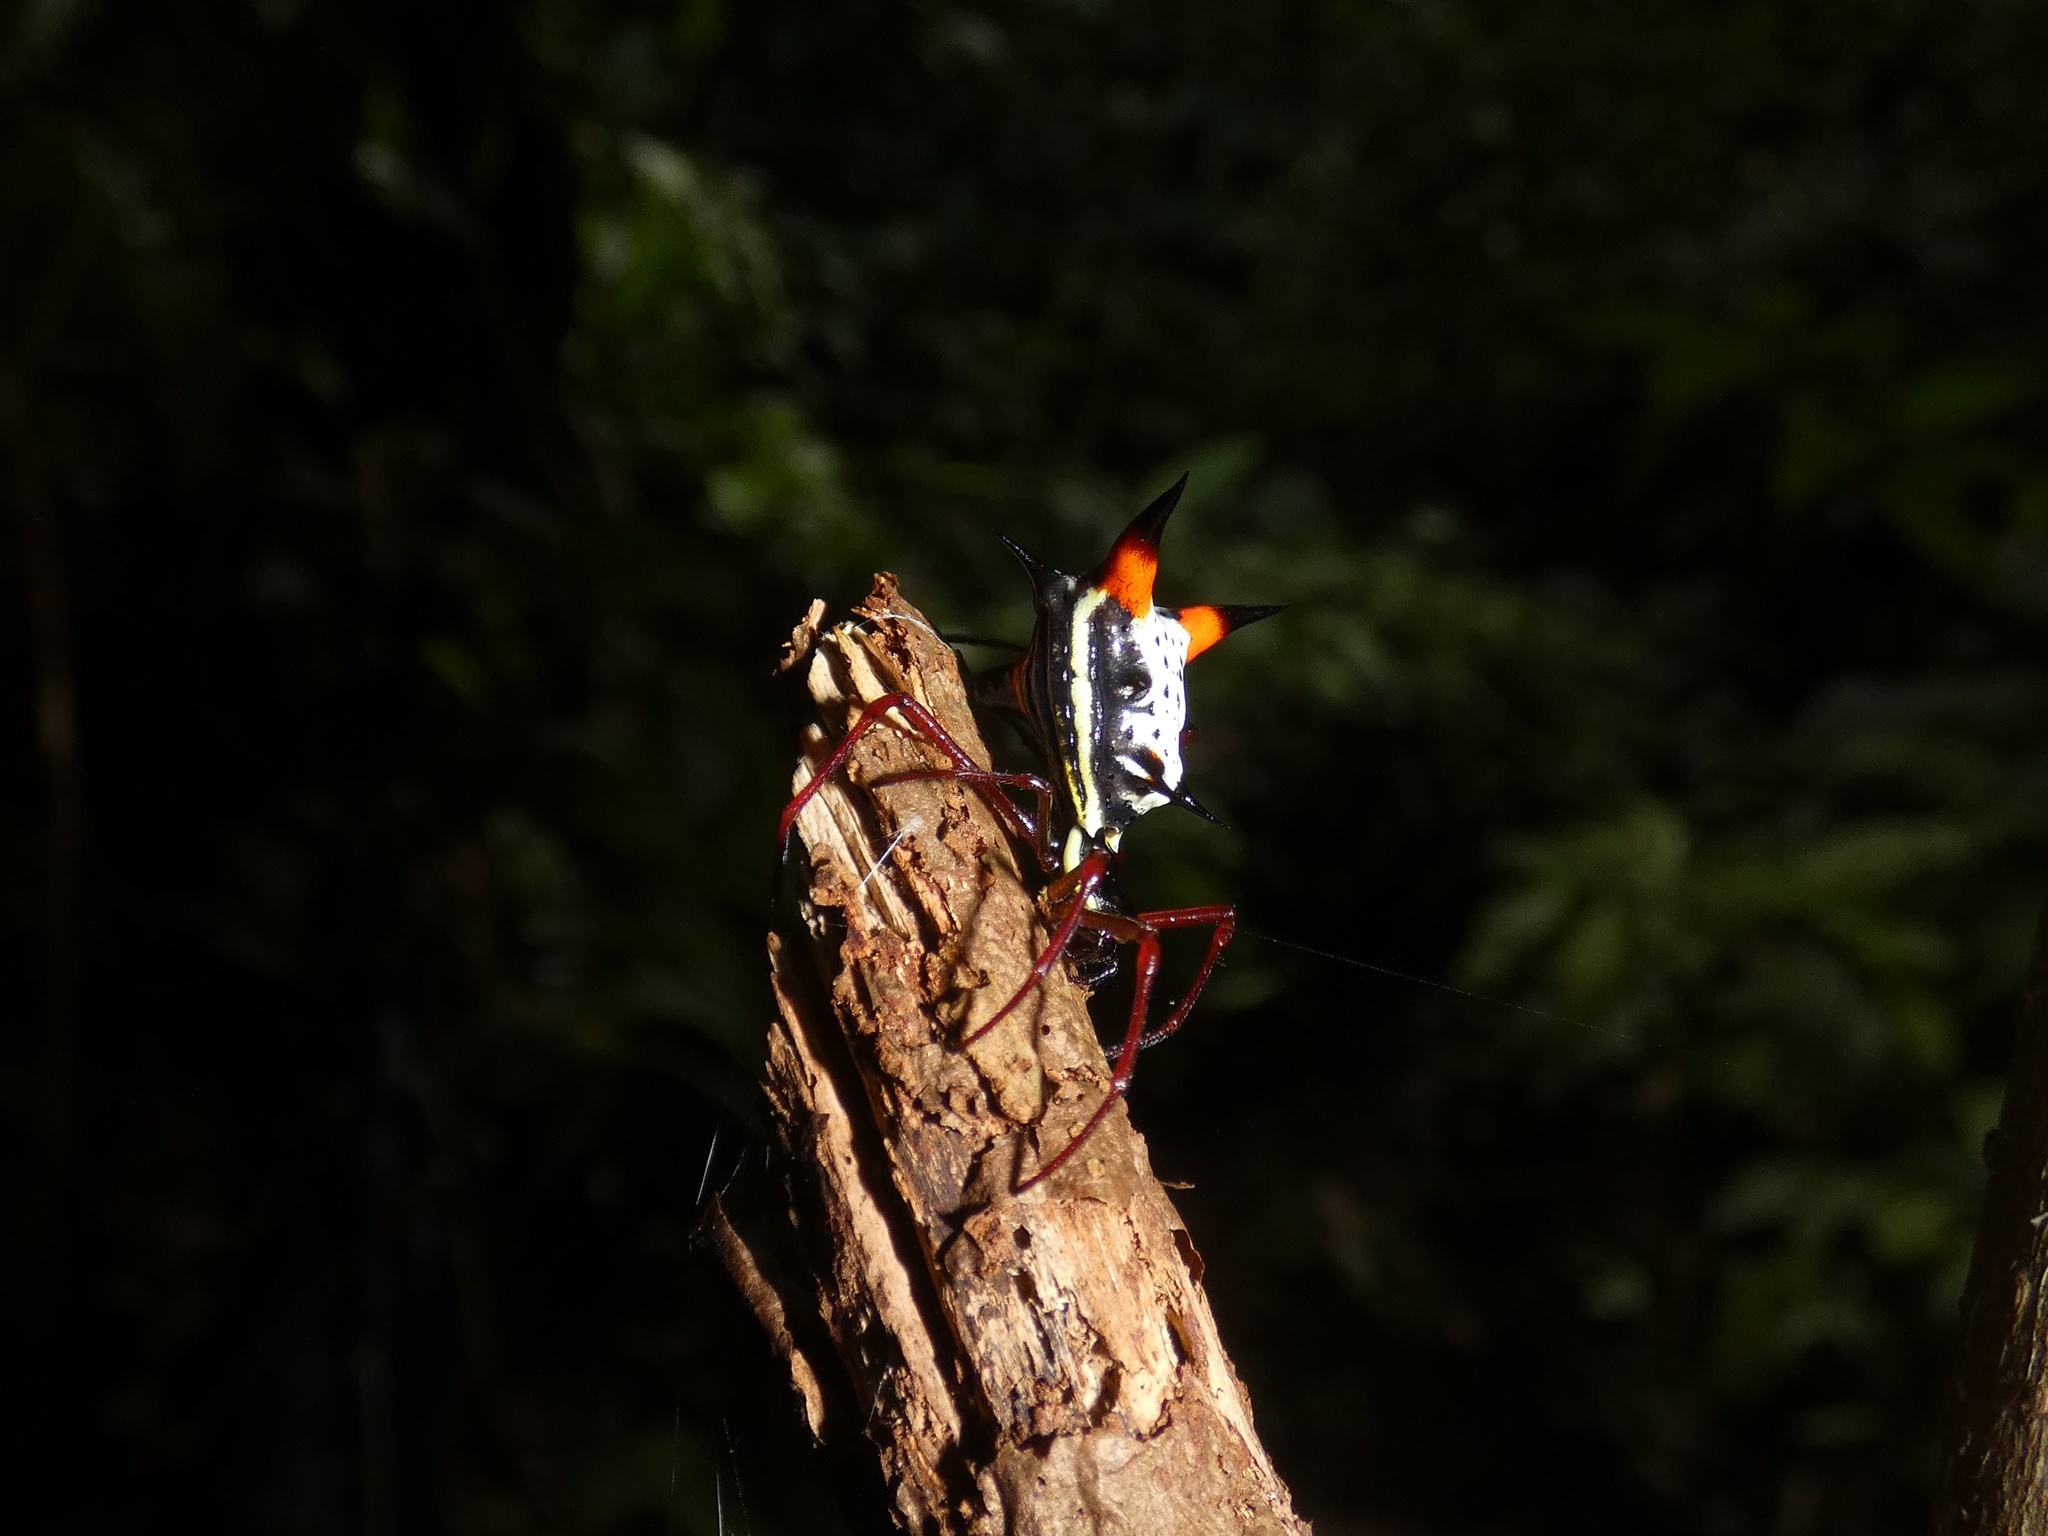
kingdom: Animalia
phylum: Arthropoda
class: Arachnida
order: Araneae
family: Araneidae
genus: Micrathena
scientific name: Micrathena schreibersi
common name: Orb weavers
